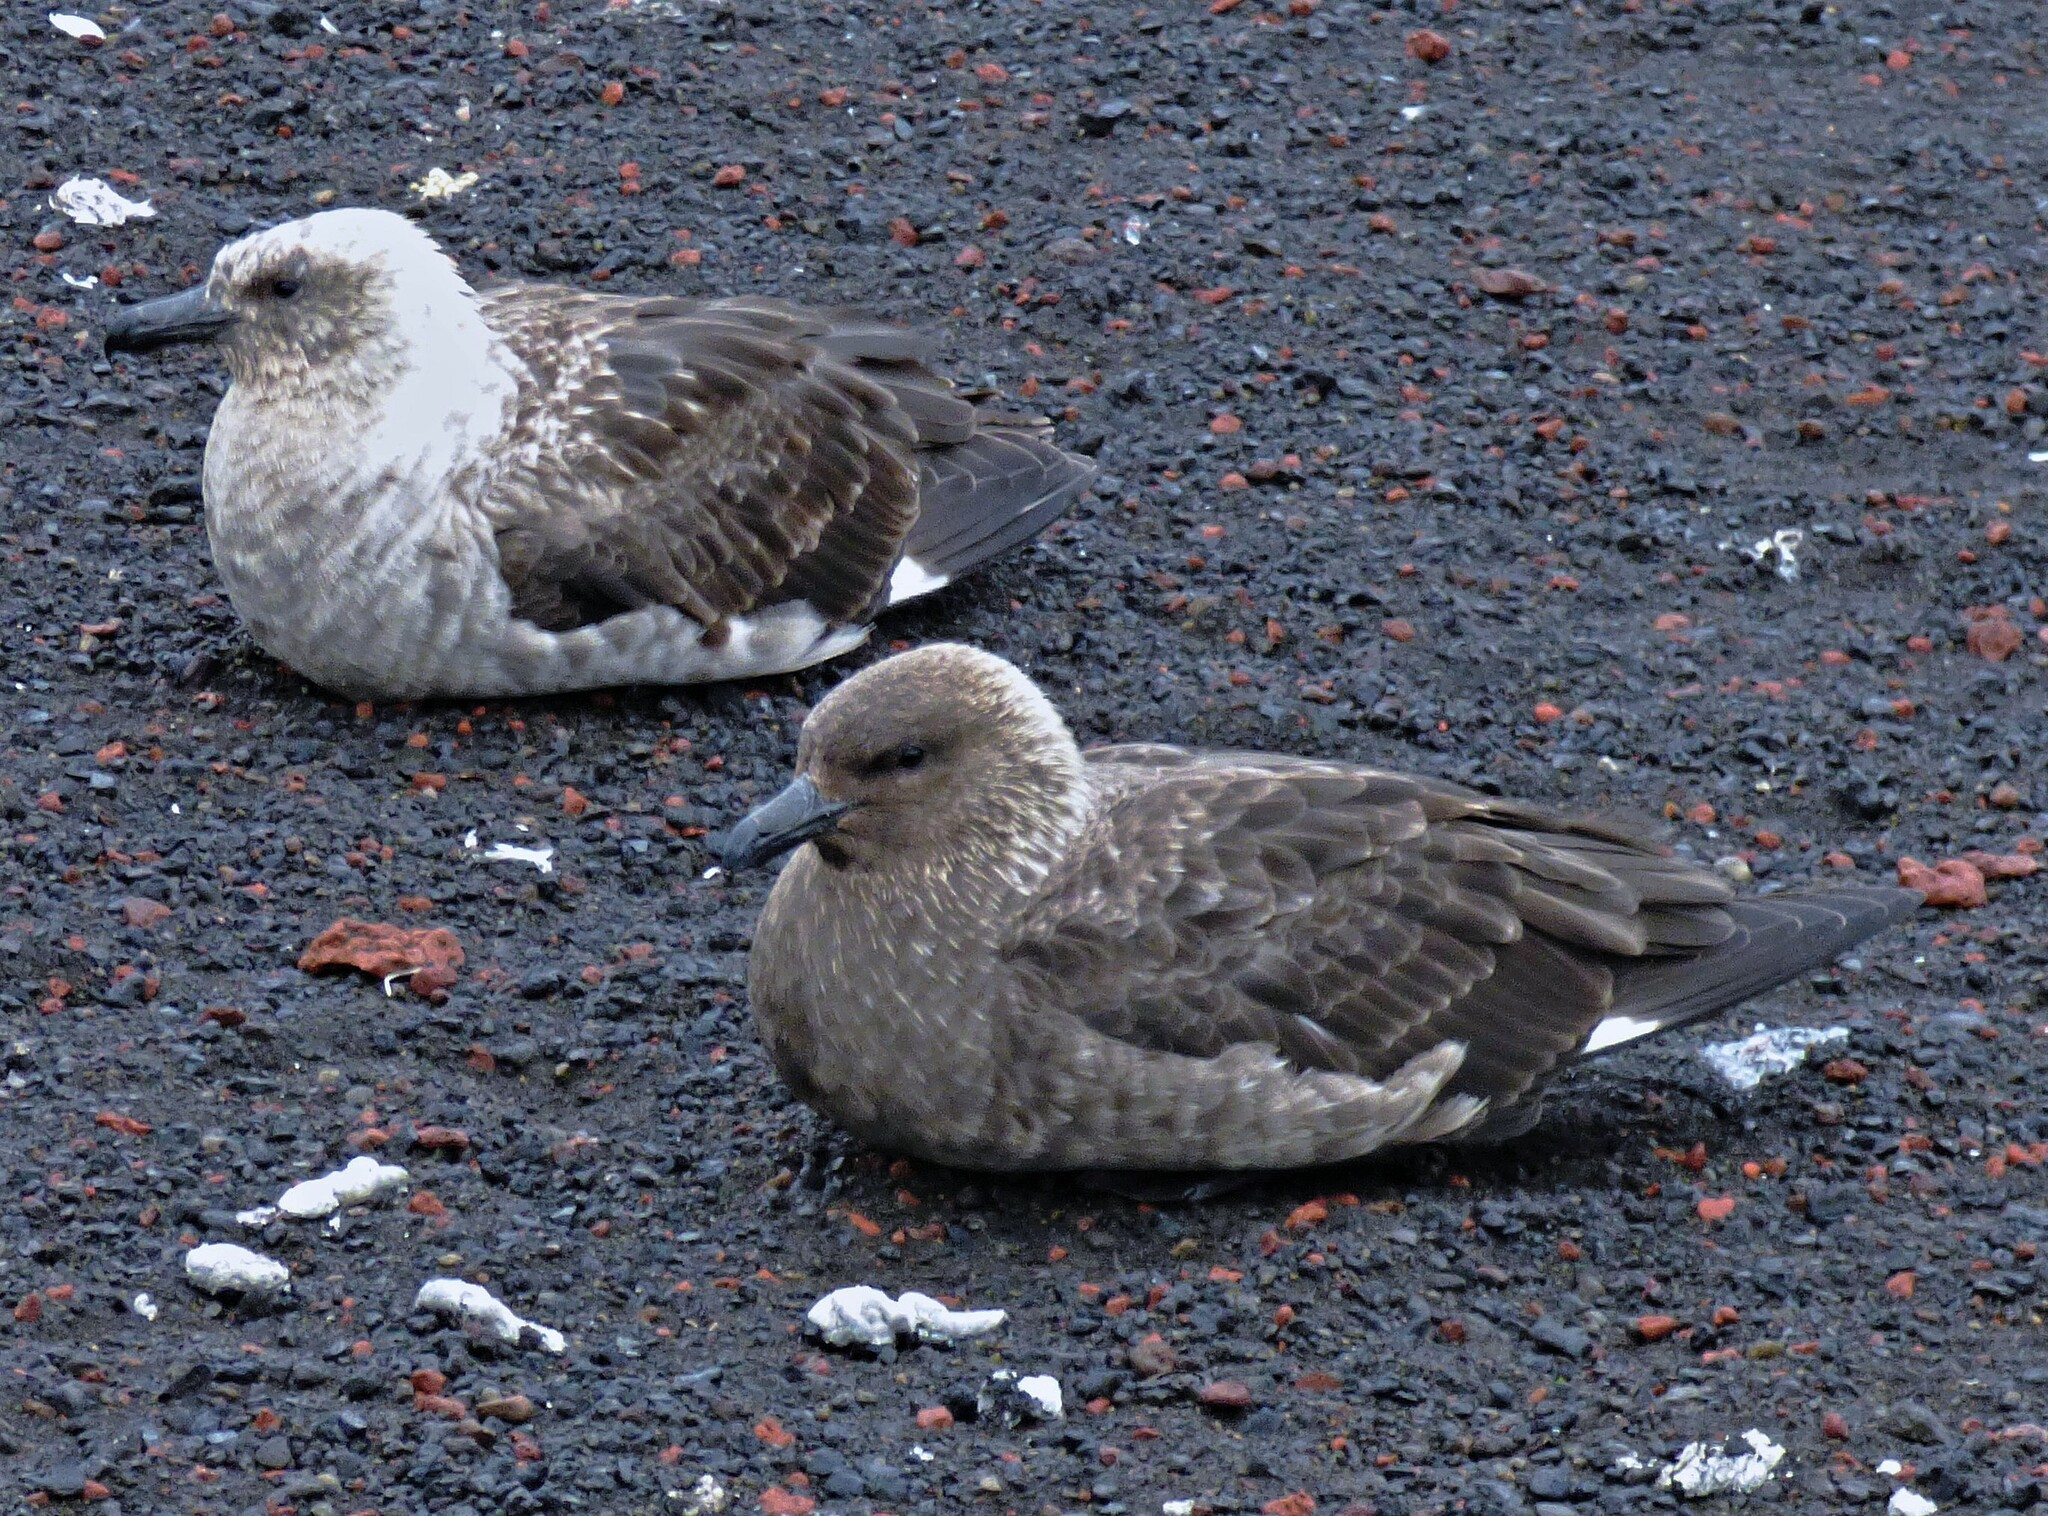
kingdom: Animalia
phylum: Chordata
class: Aves
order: Charadriiformes
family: Stercorariidae
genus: Stercorarius
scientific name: Stercorarius maccormicki
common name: South polar skua
